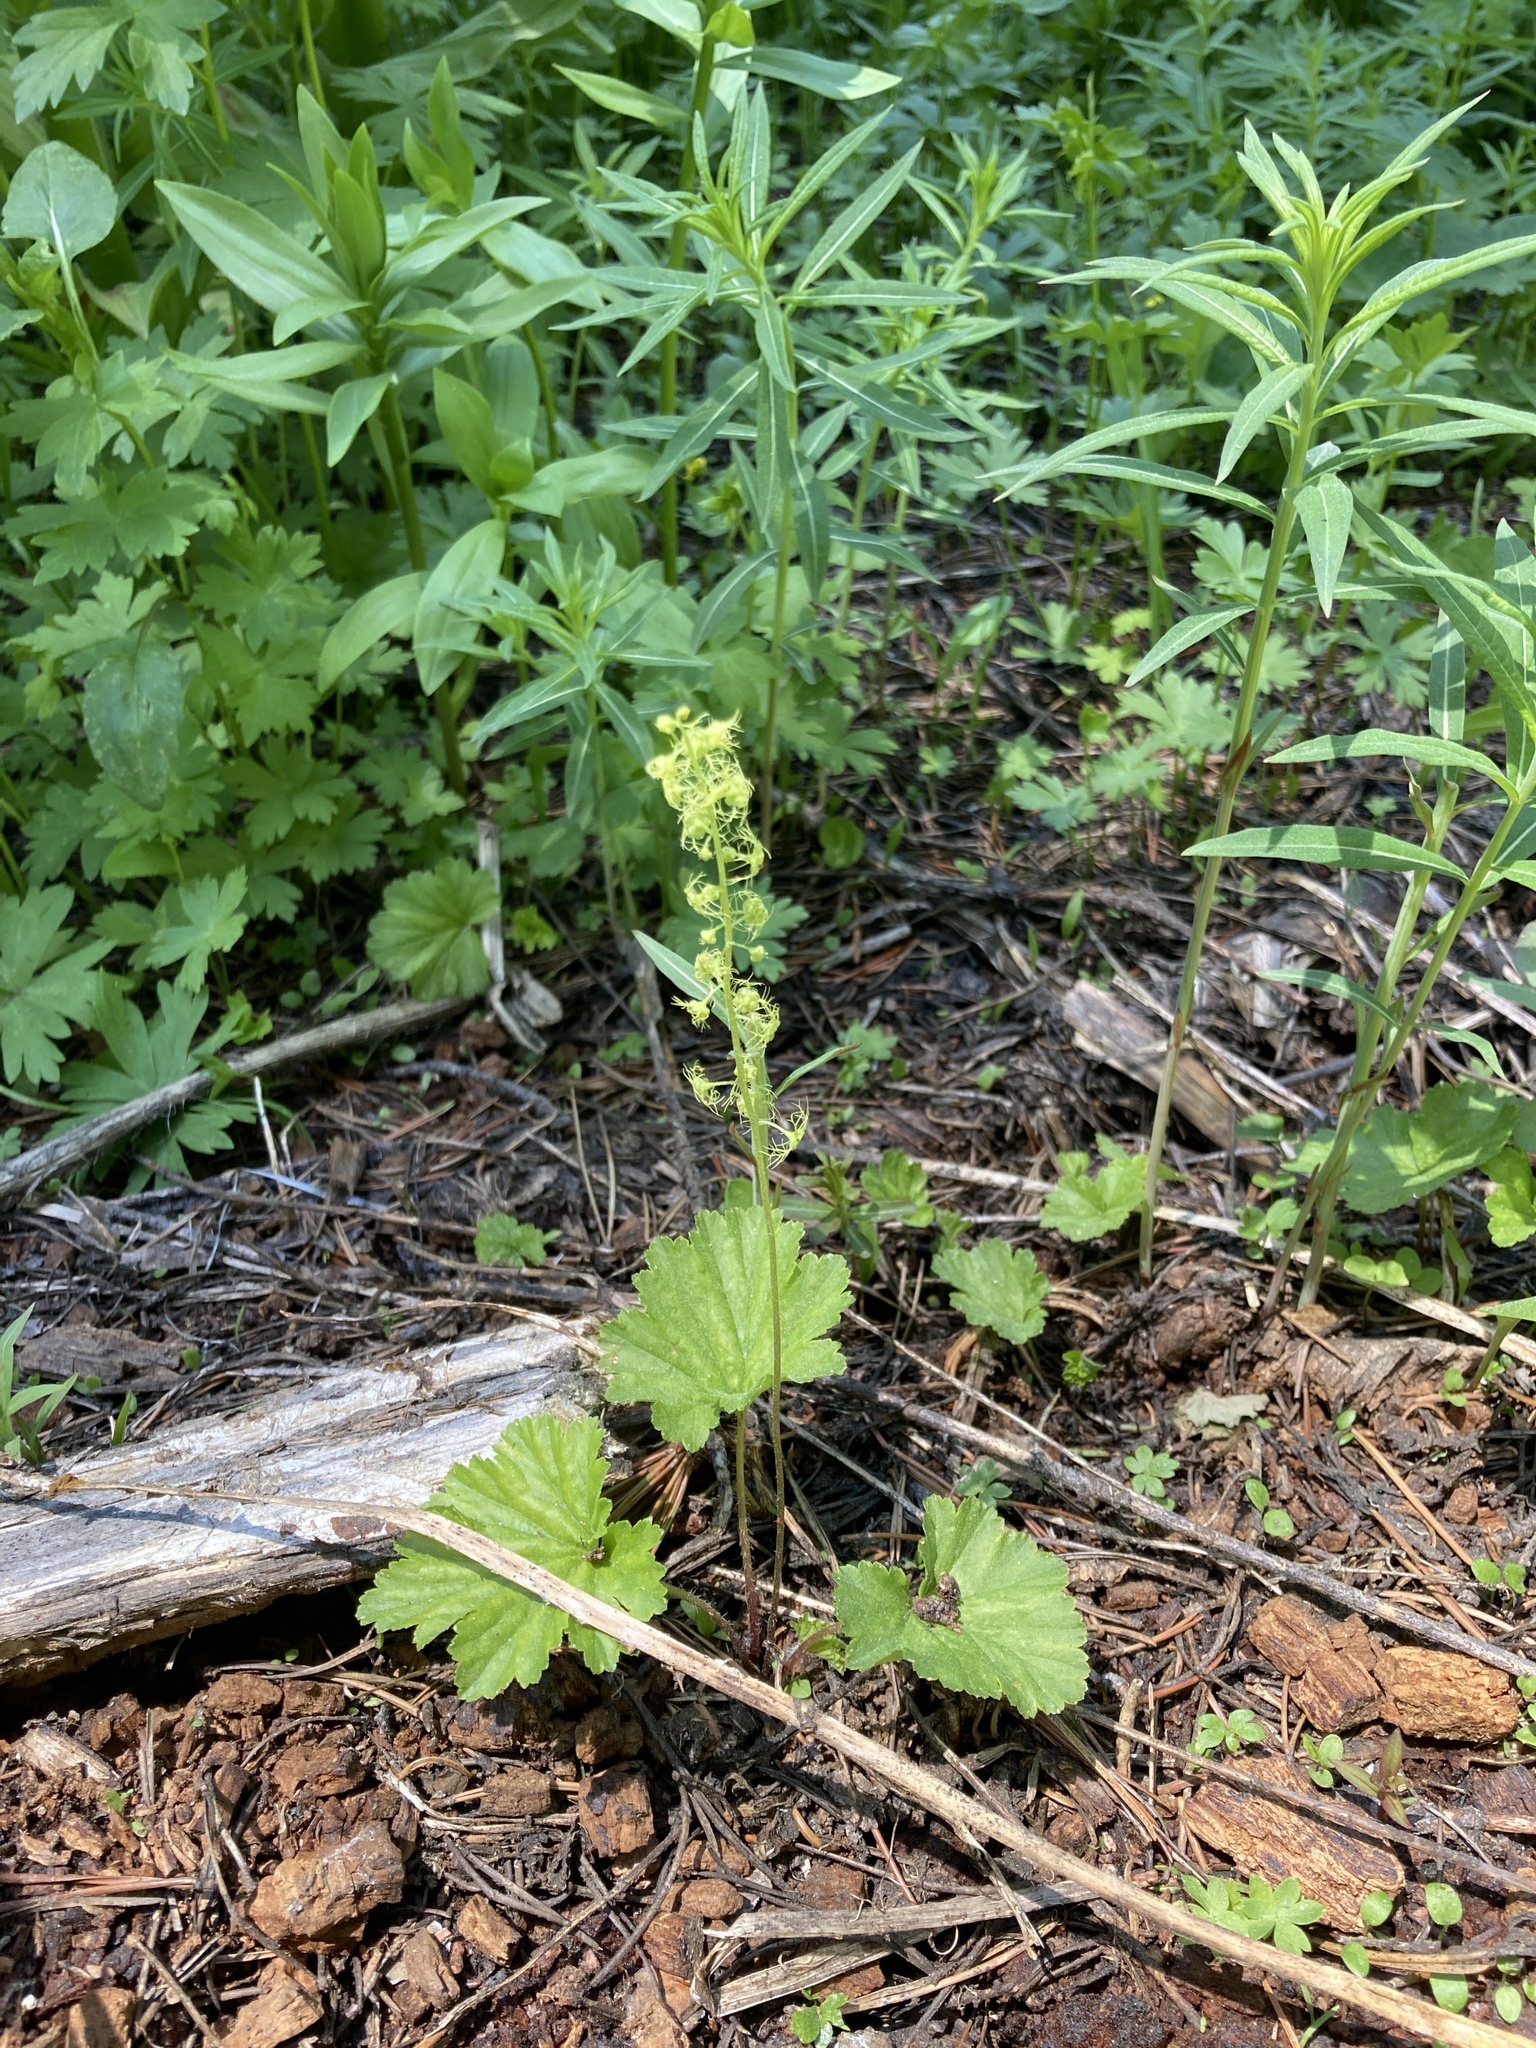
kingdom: Plantae
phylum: Tracheophyta
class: Magnoliopsida
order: Saxifragales
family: Saxifragaceae
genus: Brewerimitella
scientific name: Brewerimitella breweri
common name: Brewer's bishop's-cap
